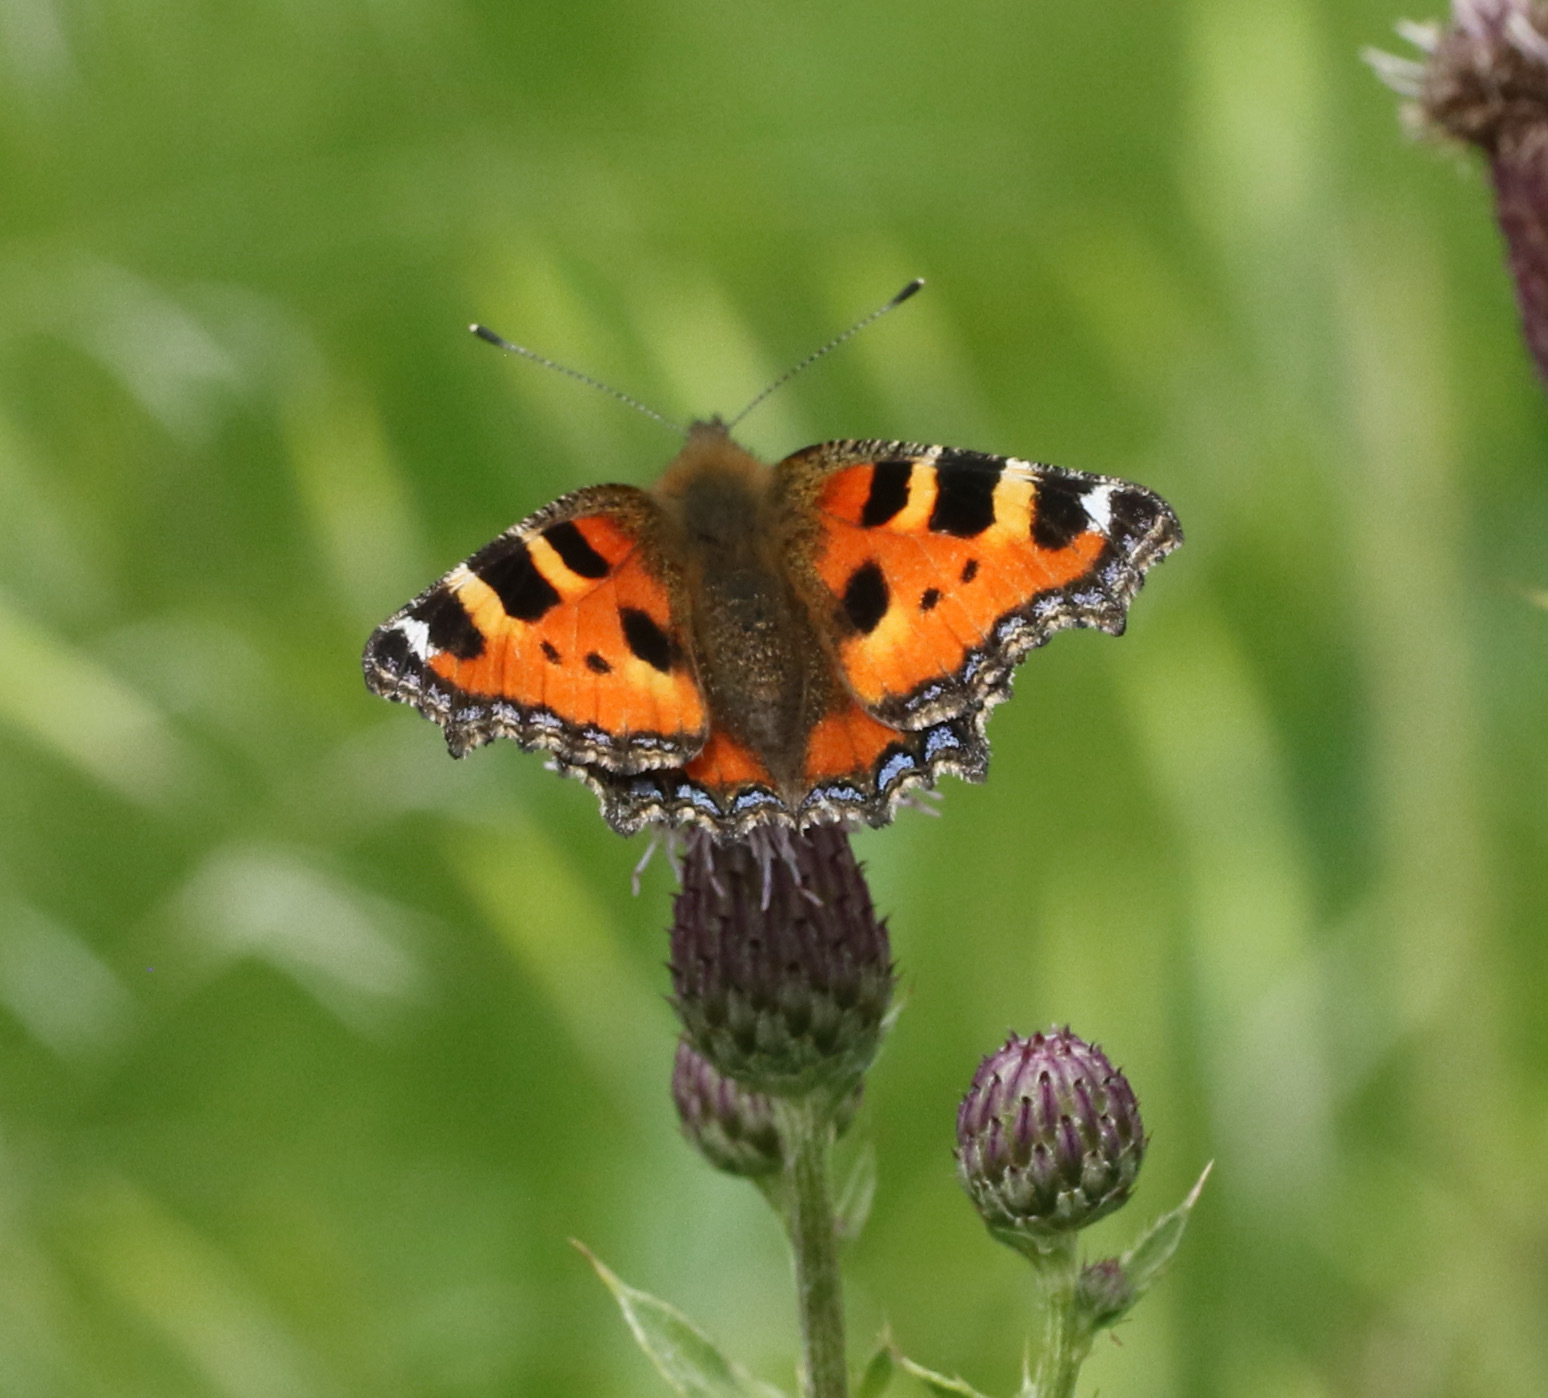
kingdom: Animalia
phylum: Arthropoda
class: Insecta
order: Lepidoptera
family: Nymphalidae
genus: Aglais
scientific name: Aglais urticae
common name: Small tortoiseshell
